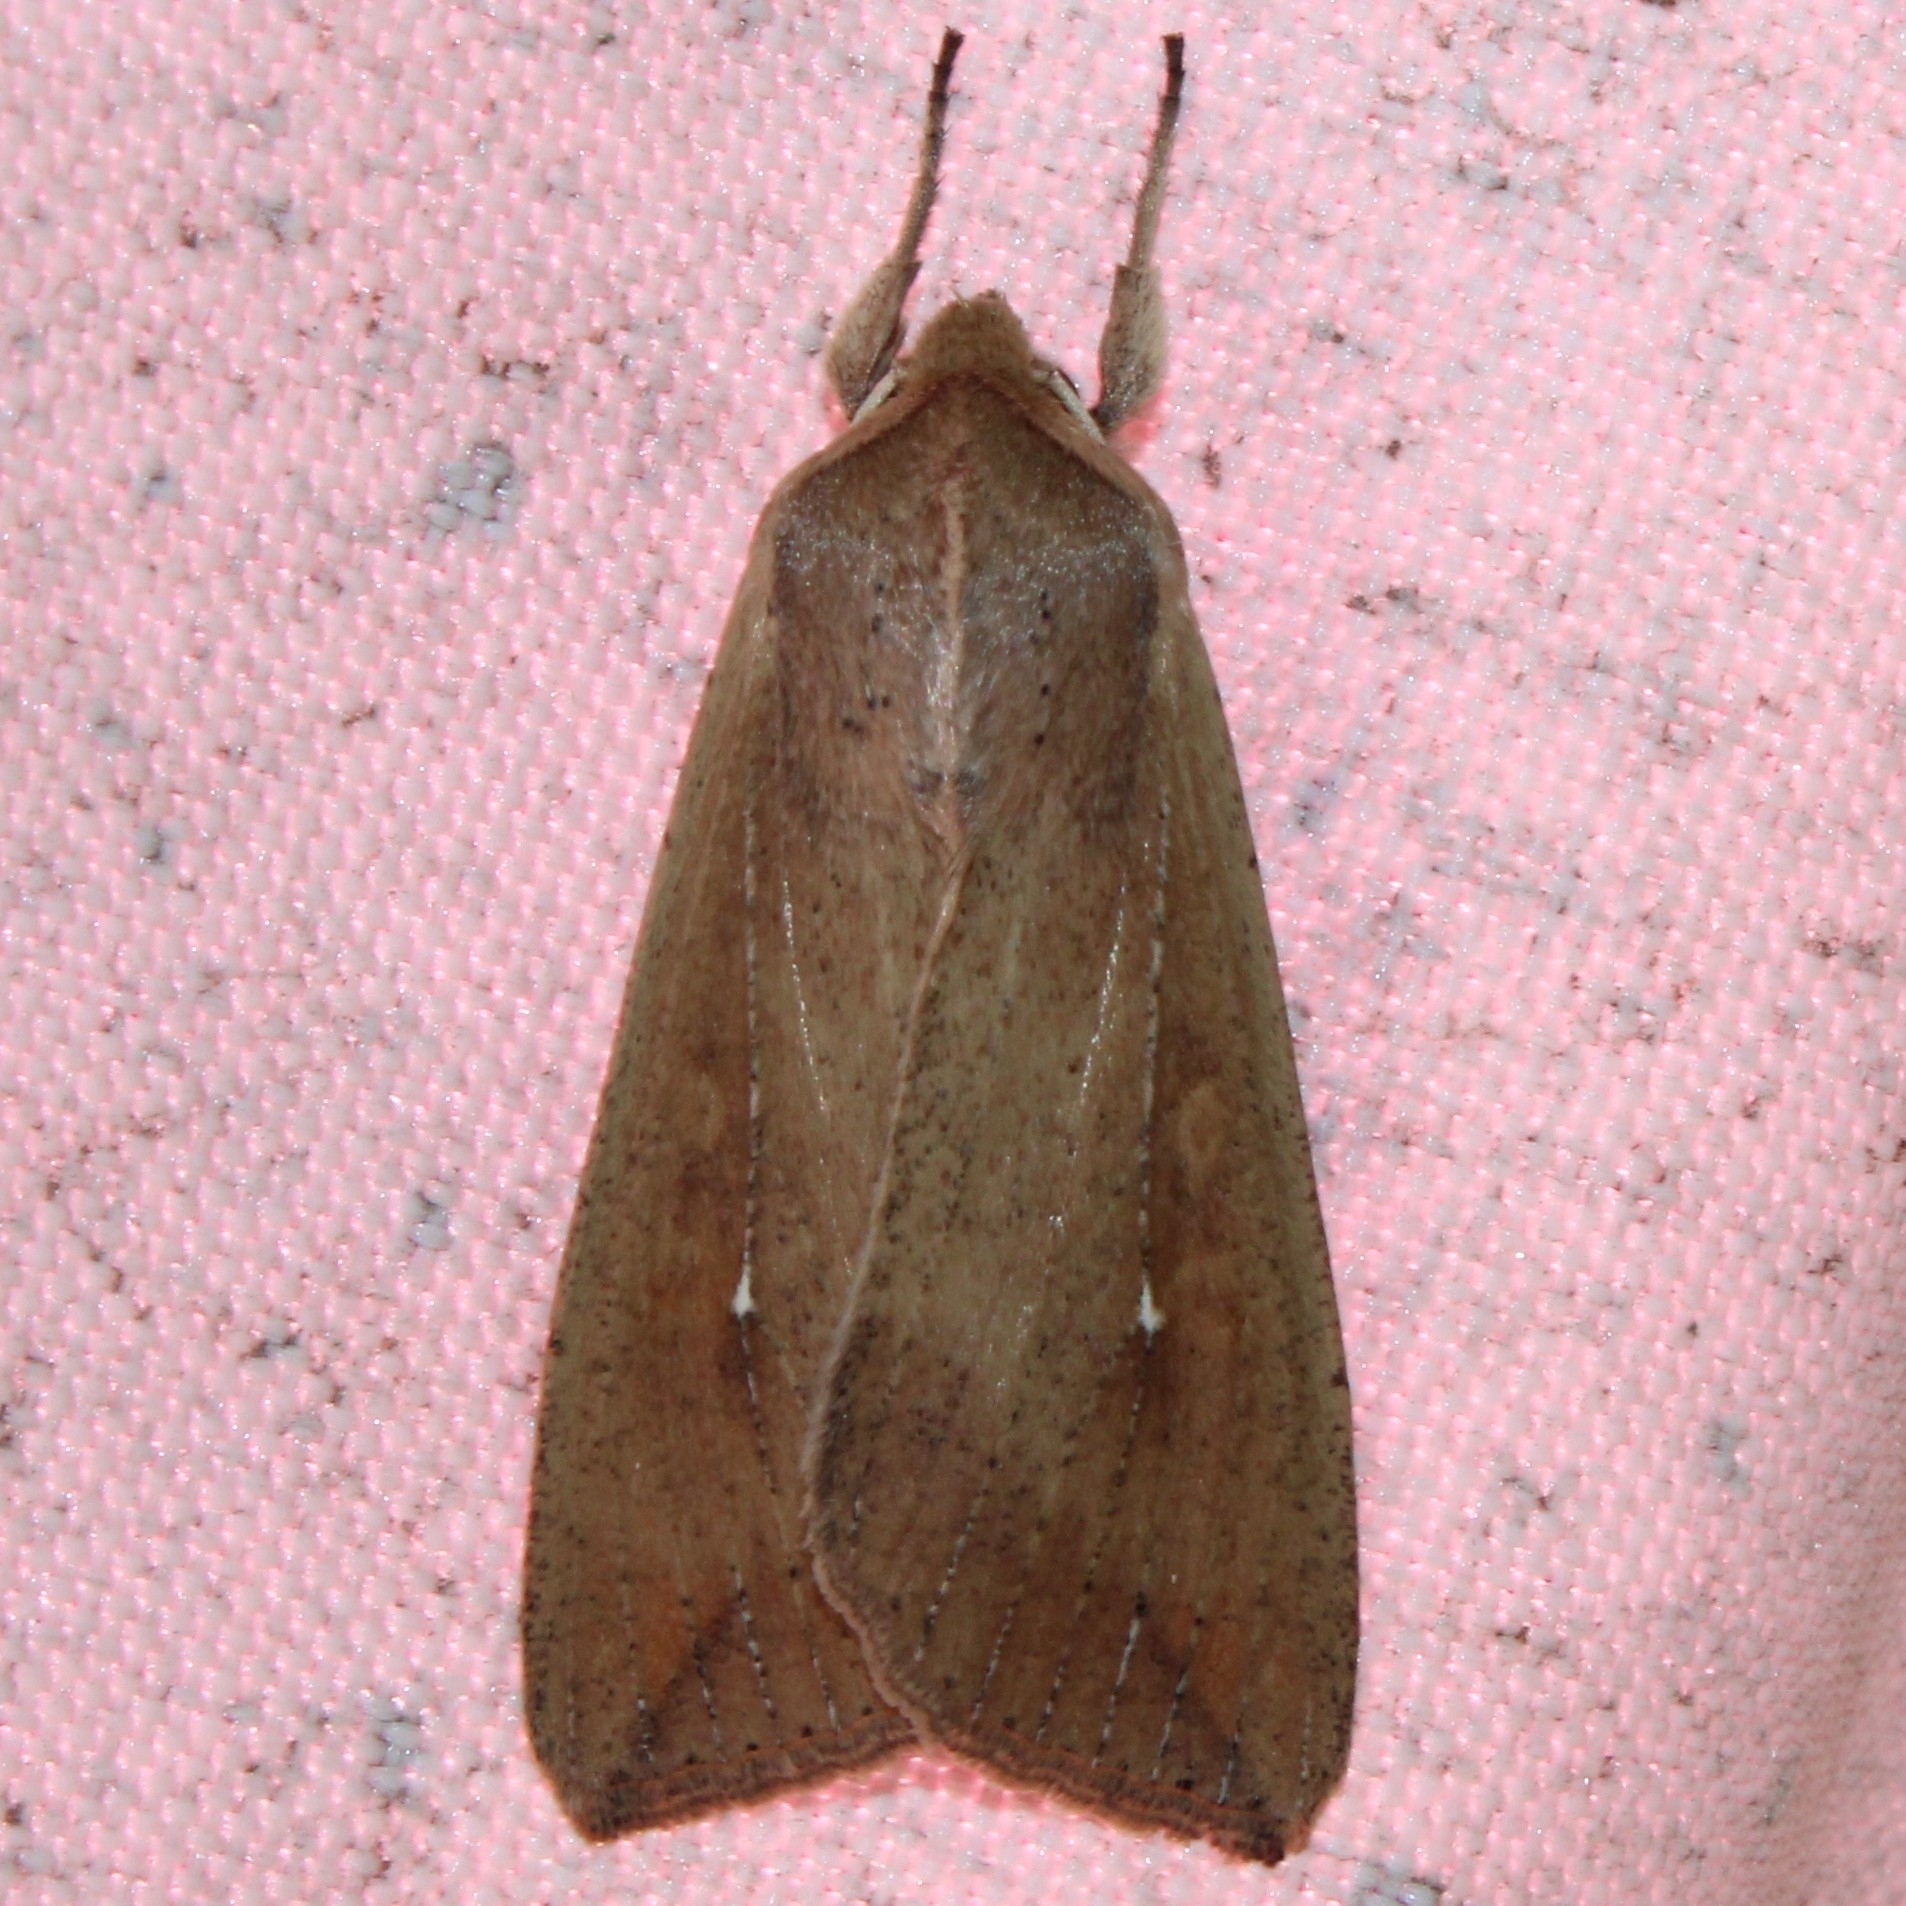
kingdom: Animalia
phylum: Arthropoda
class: Insecta
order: Lepidoptera
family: Noctuidae
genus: Mythimna
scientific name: Mythimna unipuncta
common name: White-speck
